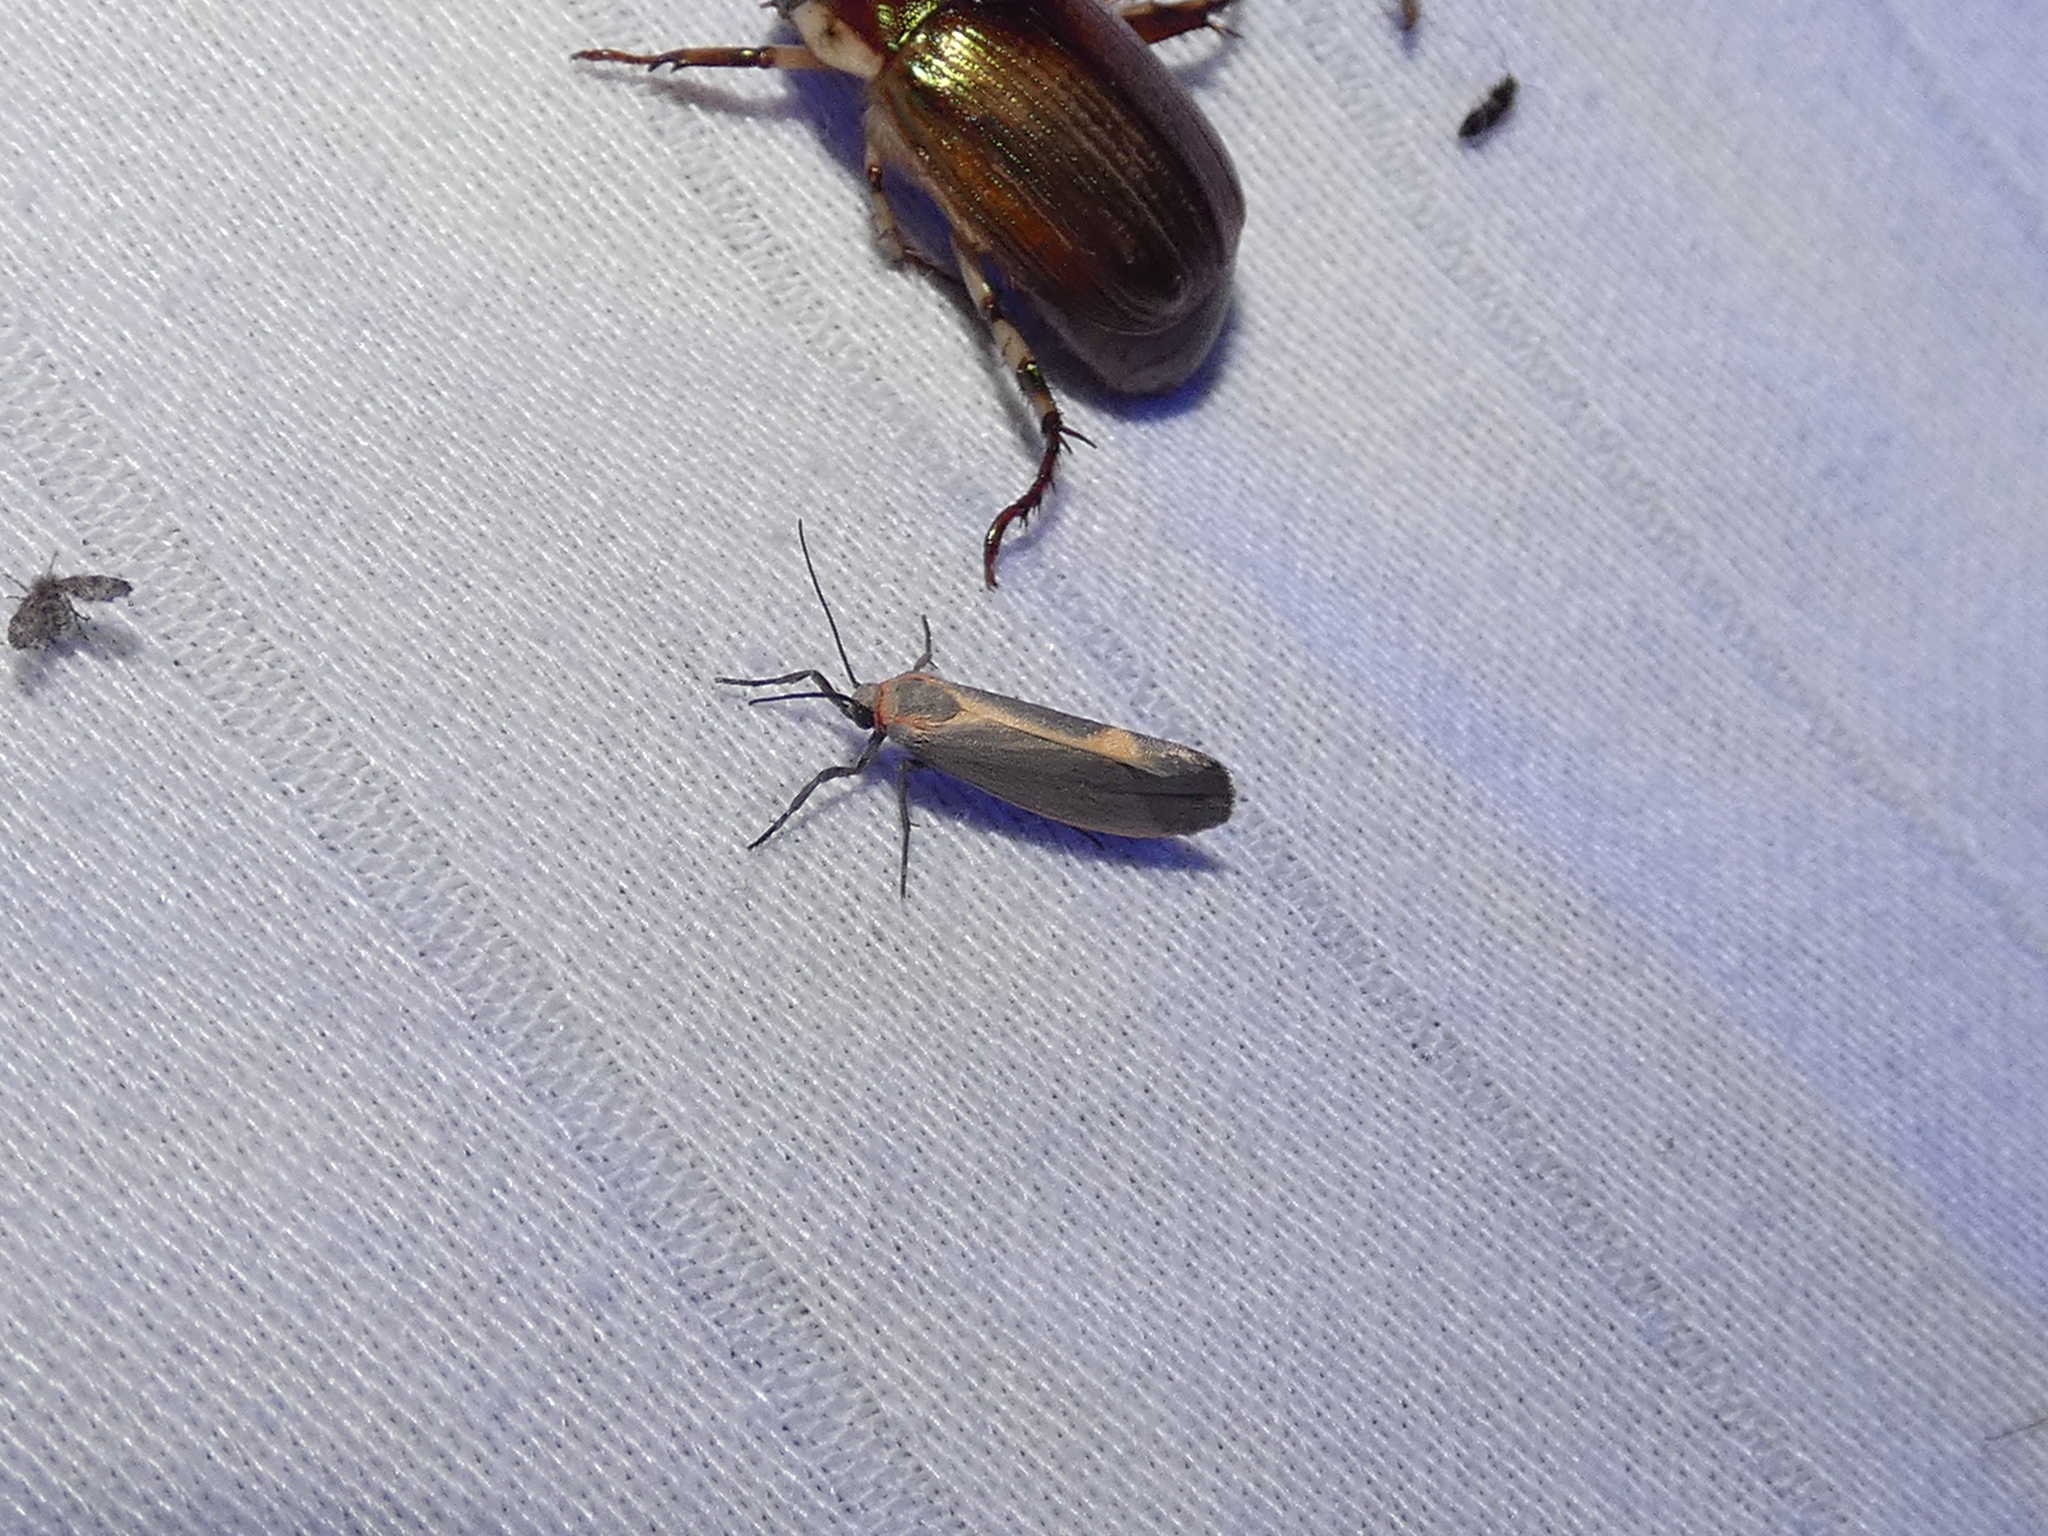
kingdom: Animalia
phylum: Arthropoda
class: Insecta
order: Lepidoptera
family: Erebidae
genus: Cisthene
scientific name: Cisthene plumbea
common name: Lead colored lichen moth
